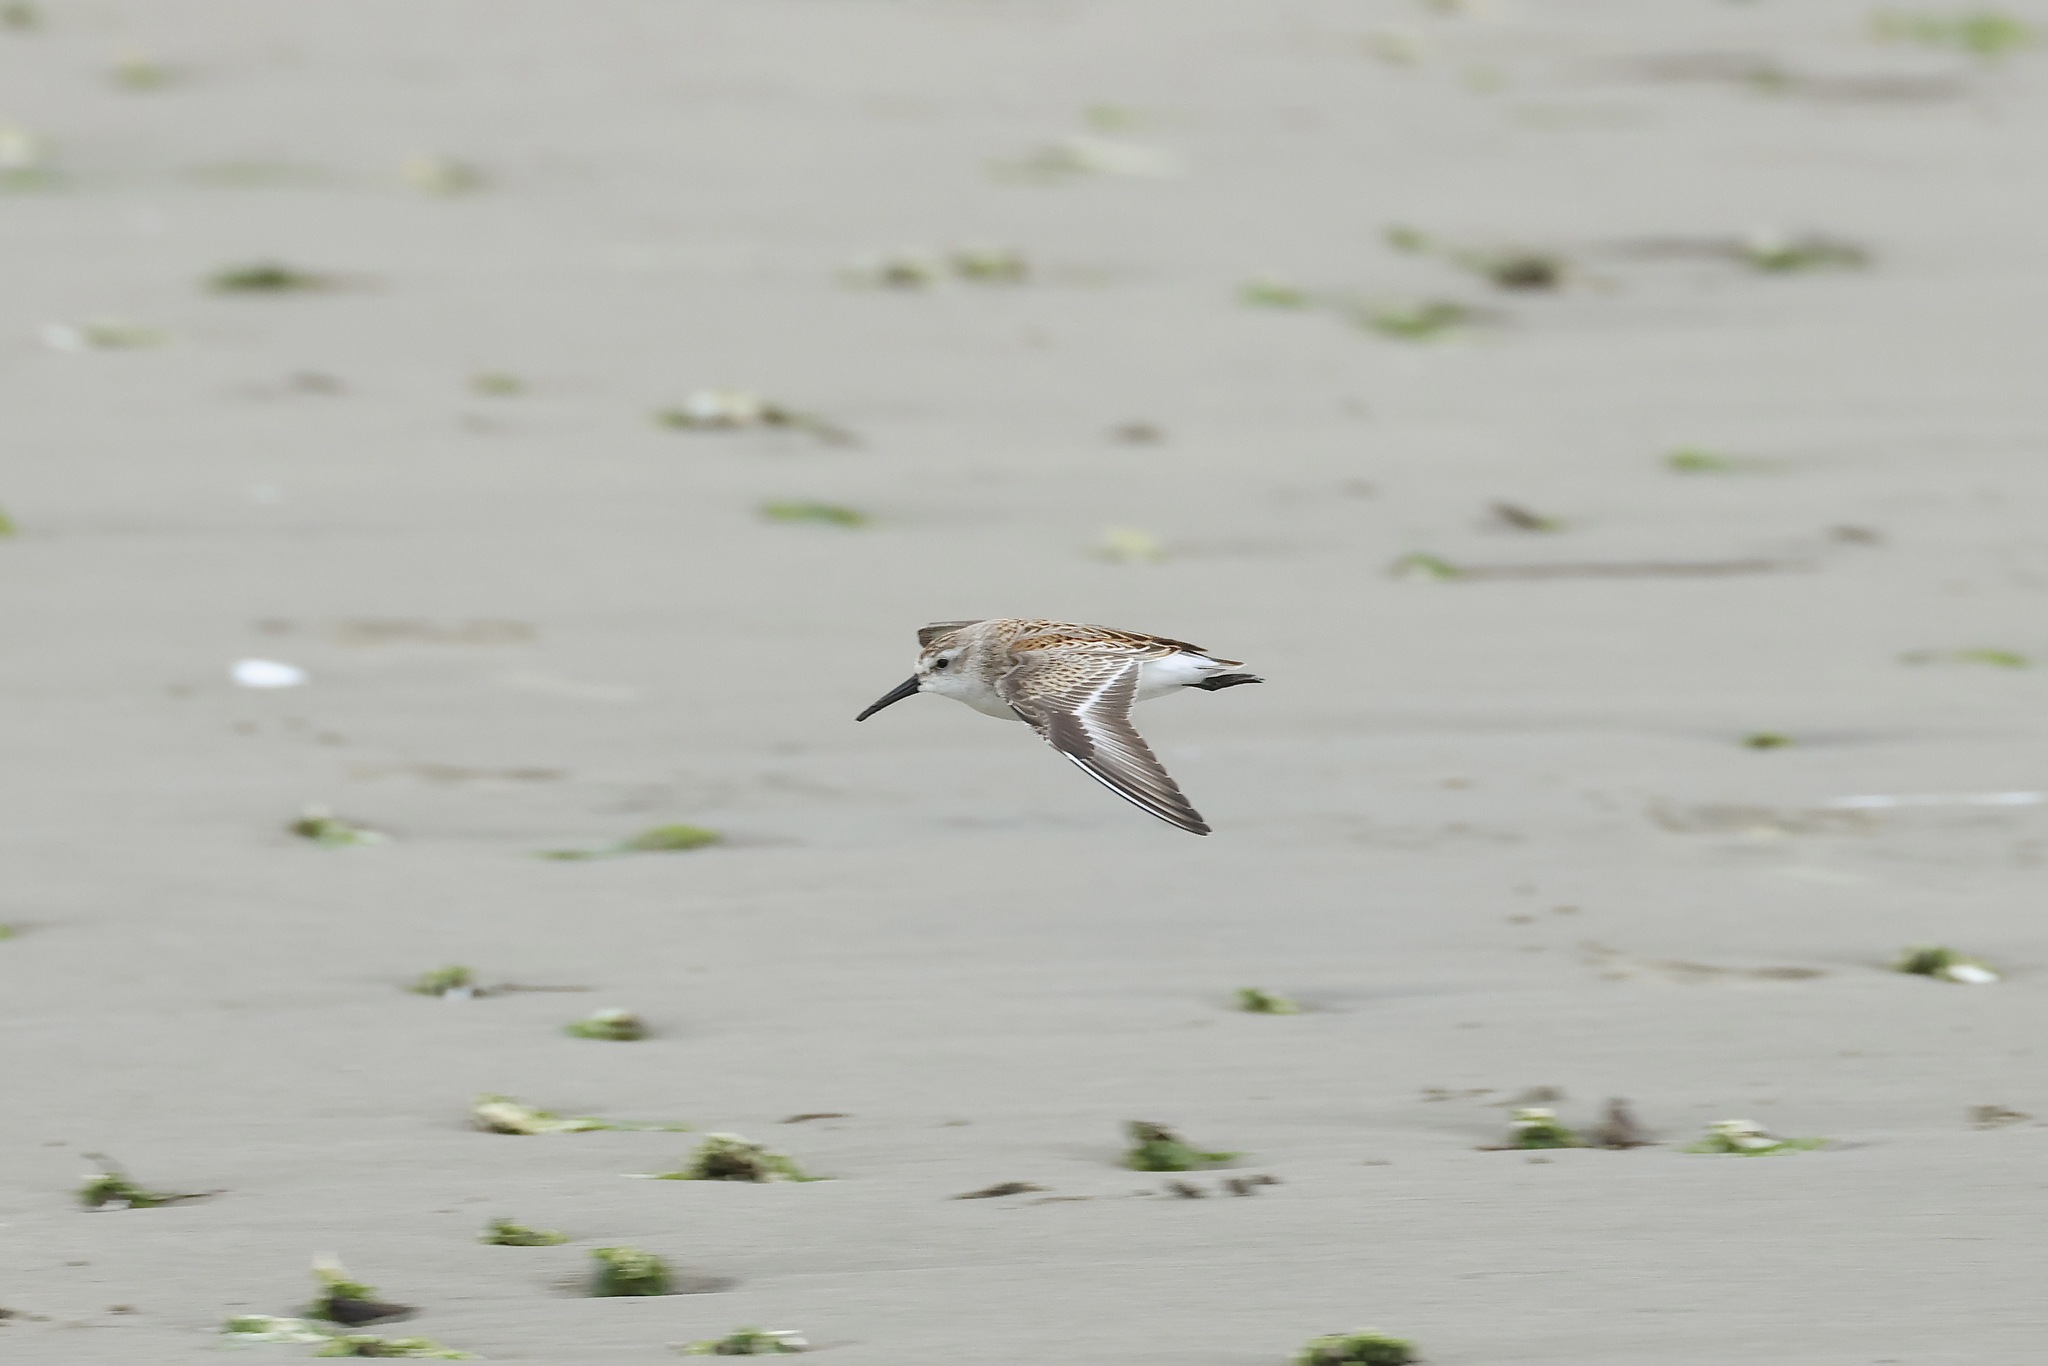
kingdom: Animalia
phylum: Chordata
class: Aves
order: Charadriiformes
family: Scolopacidae
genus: Calidris
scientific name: Calidris mauri
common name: Western sandpiper
